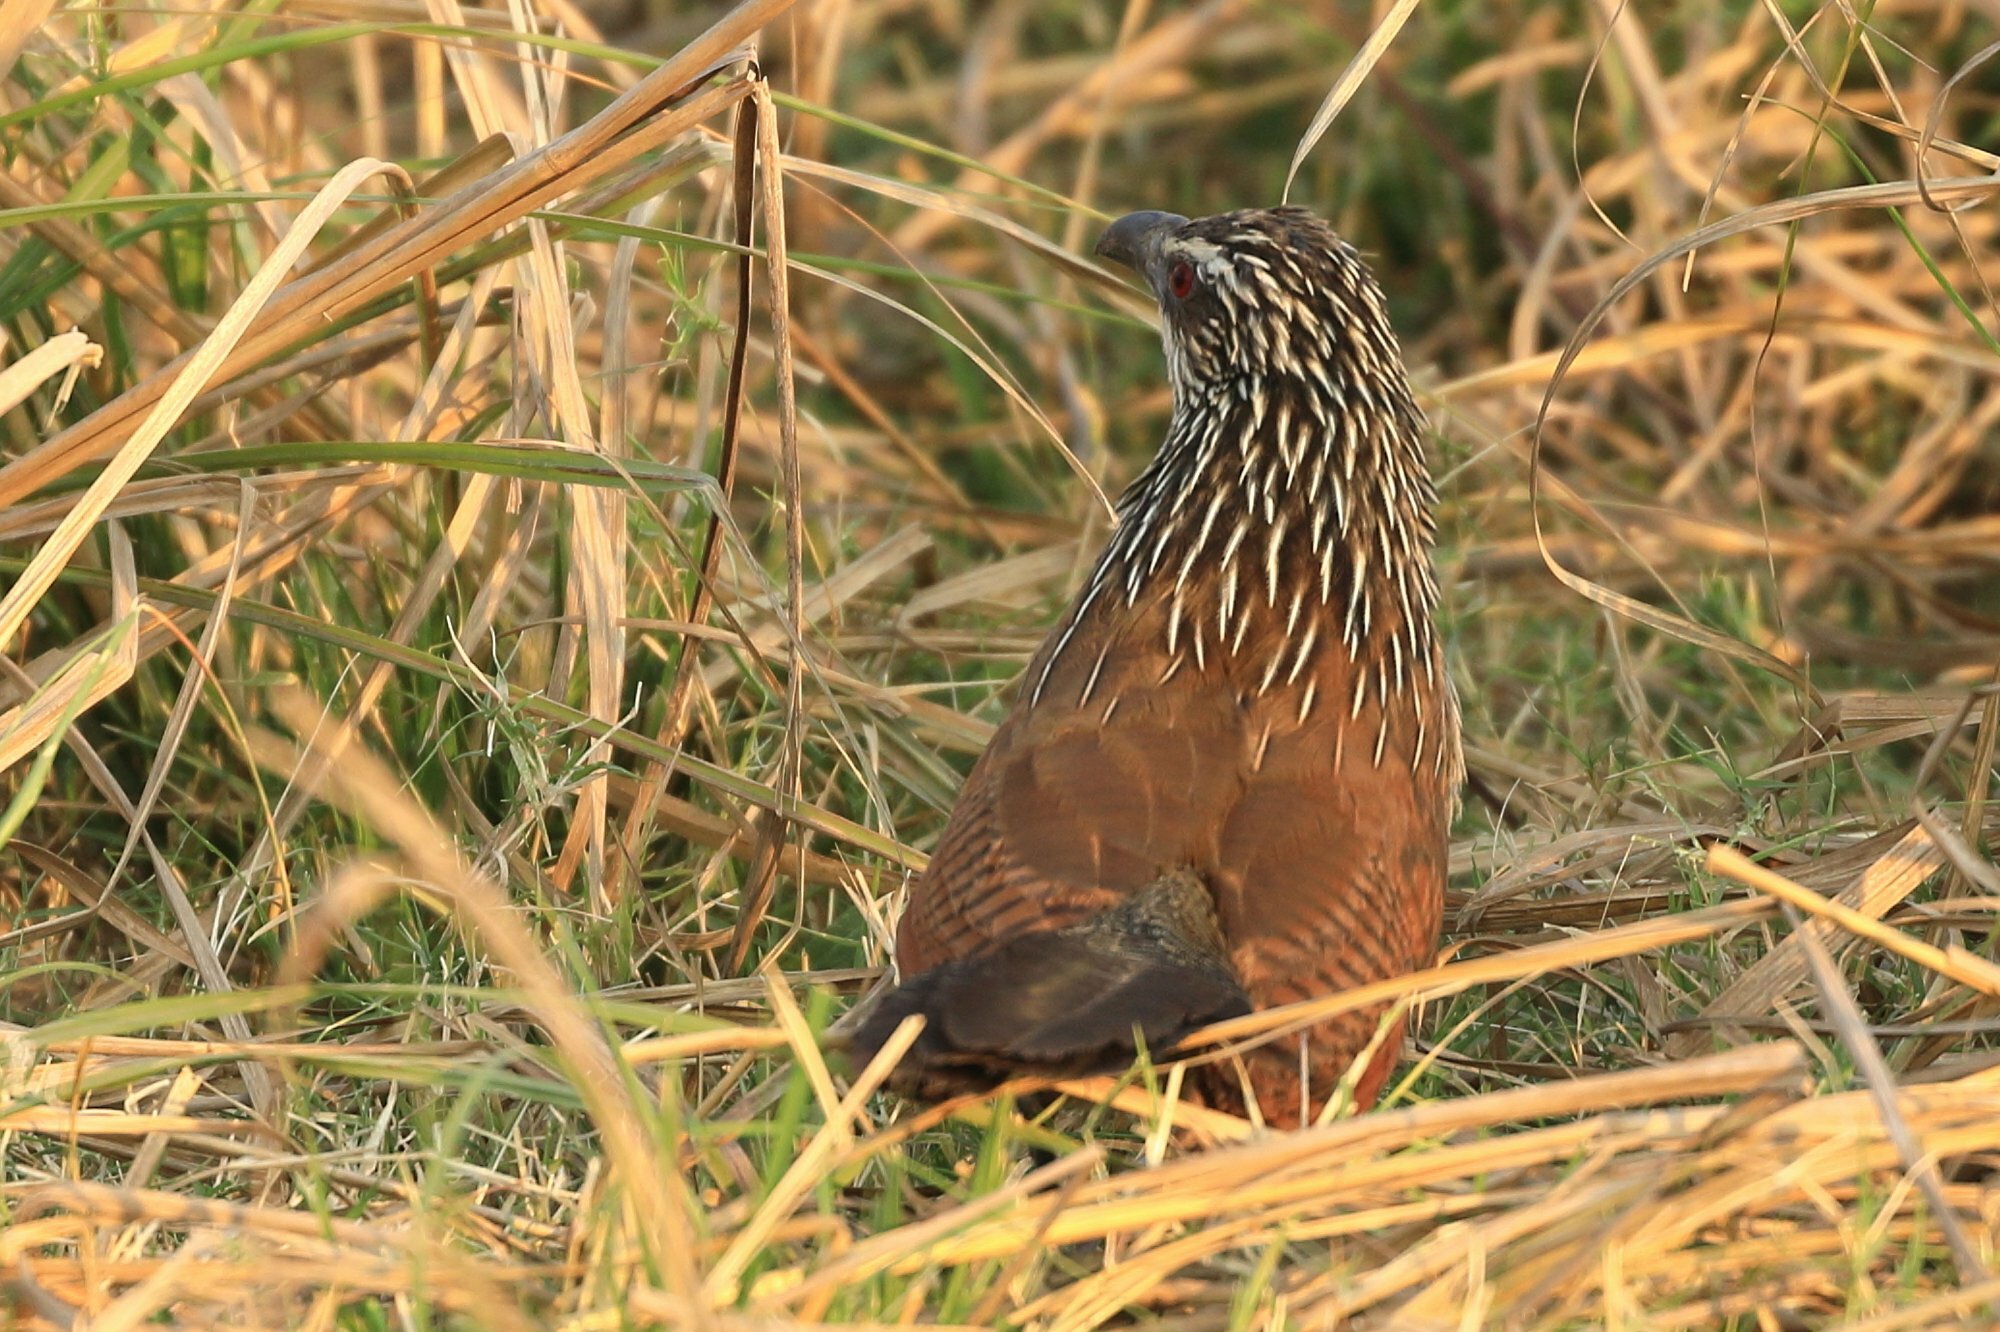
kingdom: Animalia
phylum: Chordata
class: Aves
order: Cuculiformes
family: Cuculidae
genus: Centropus
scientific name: Centropus superciliosus
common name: White-browed coucal
